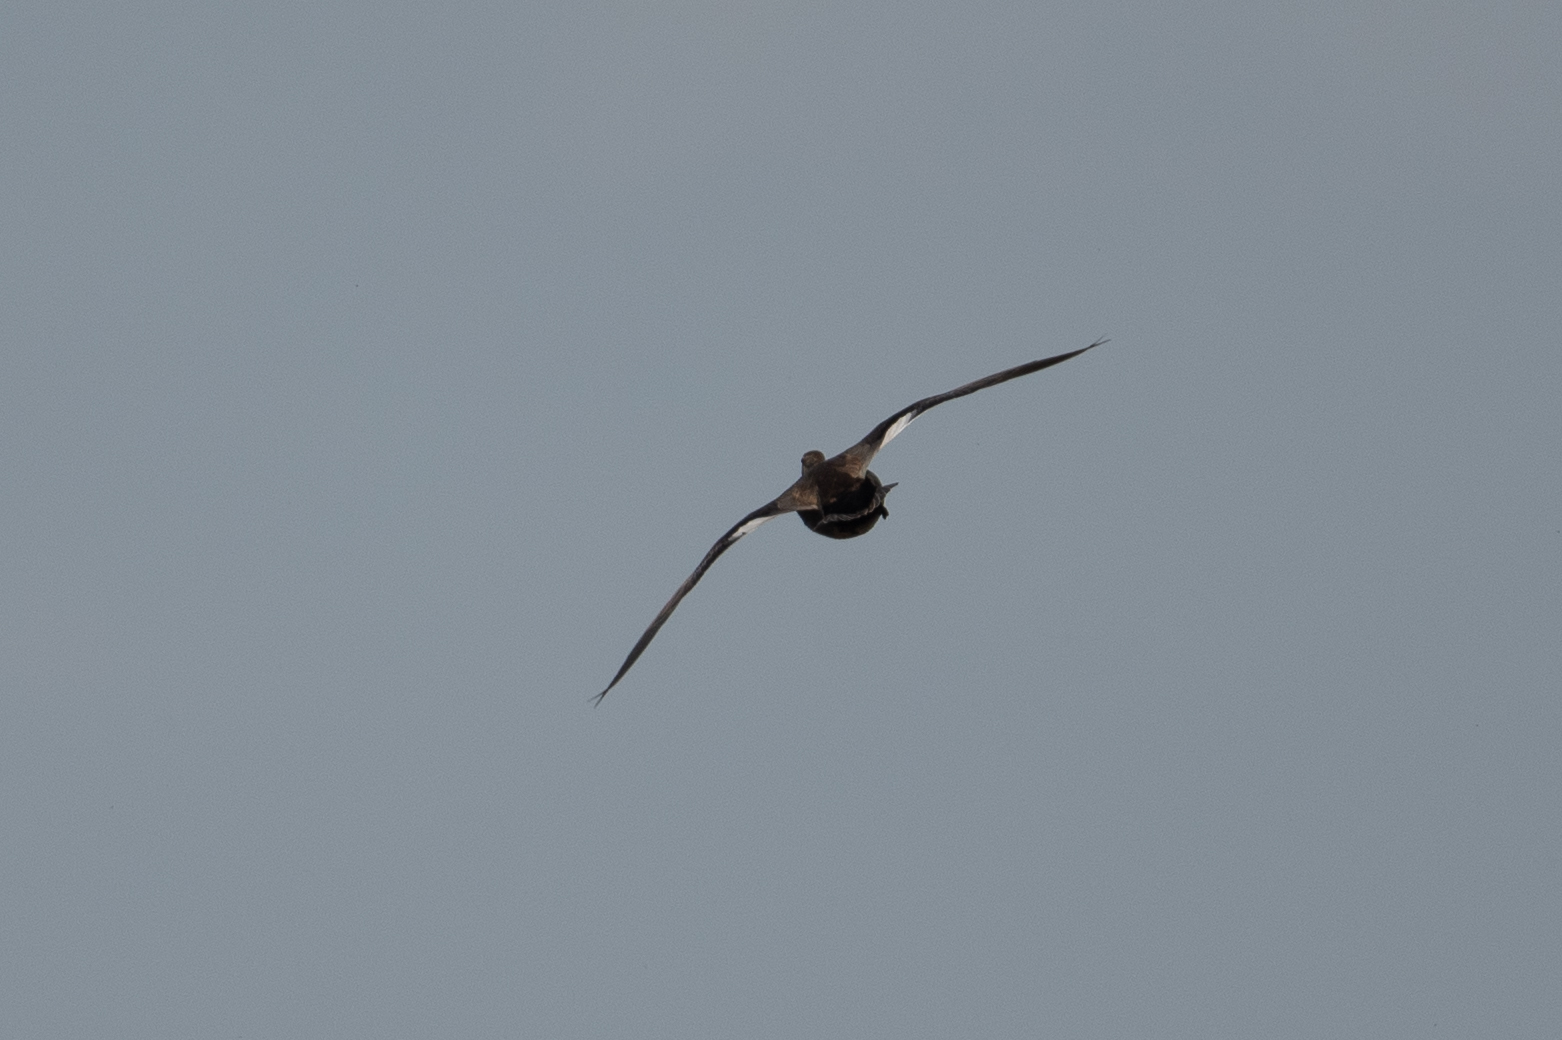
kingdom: Animalia
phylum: Chordata
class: Aves
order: Anseriformes
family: Anatidae
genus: Mareca
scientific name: Mareca strepera
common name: Gadwall
